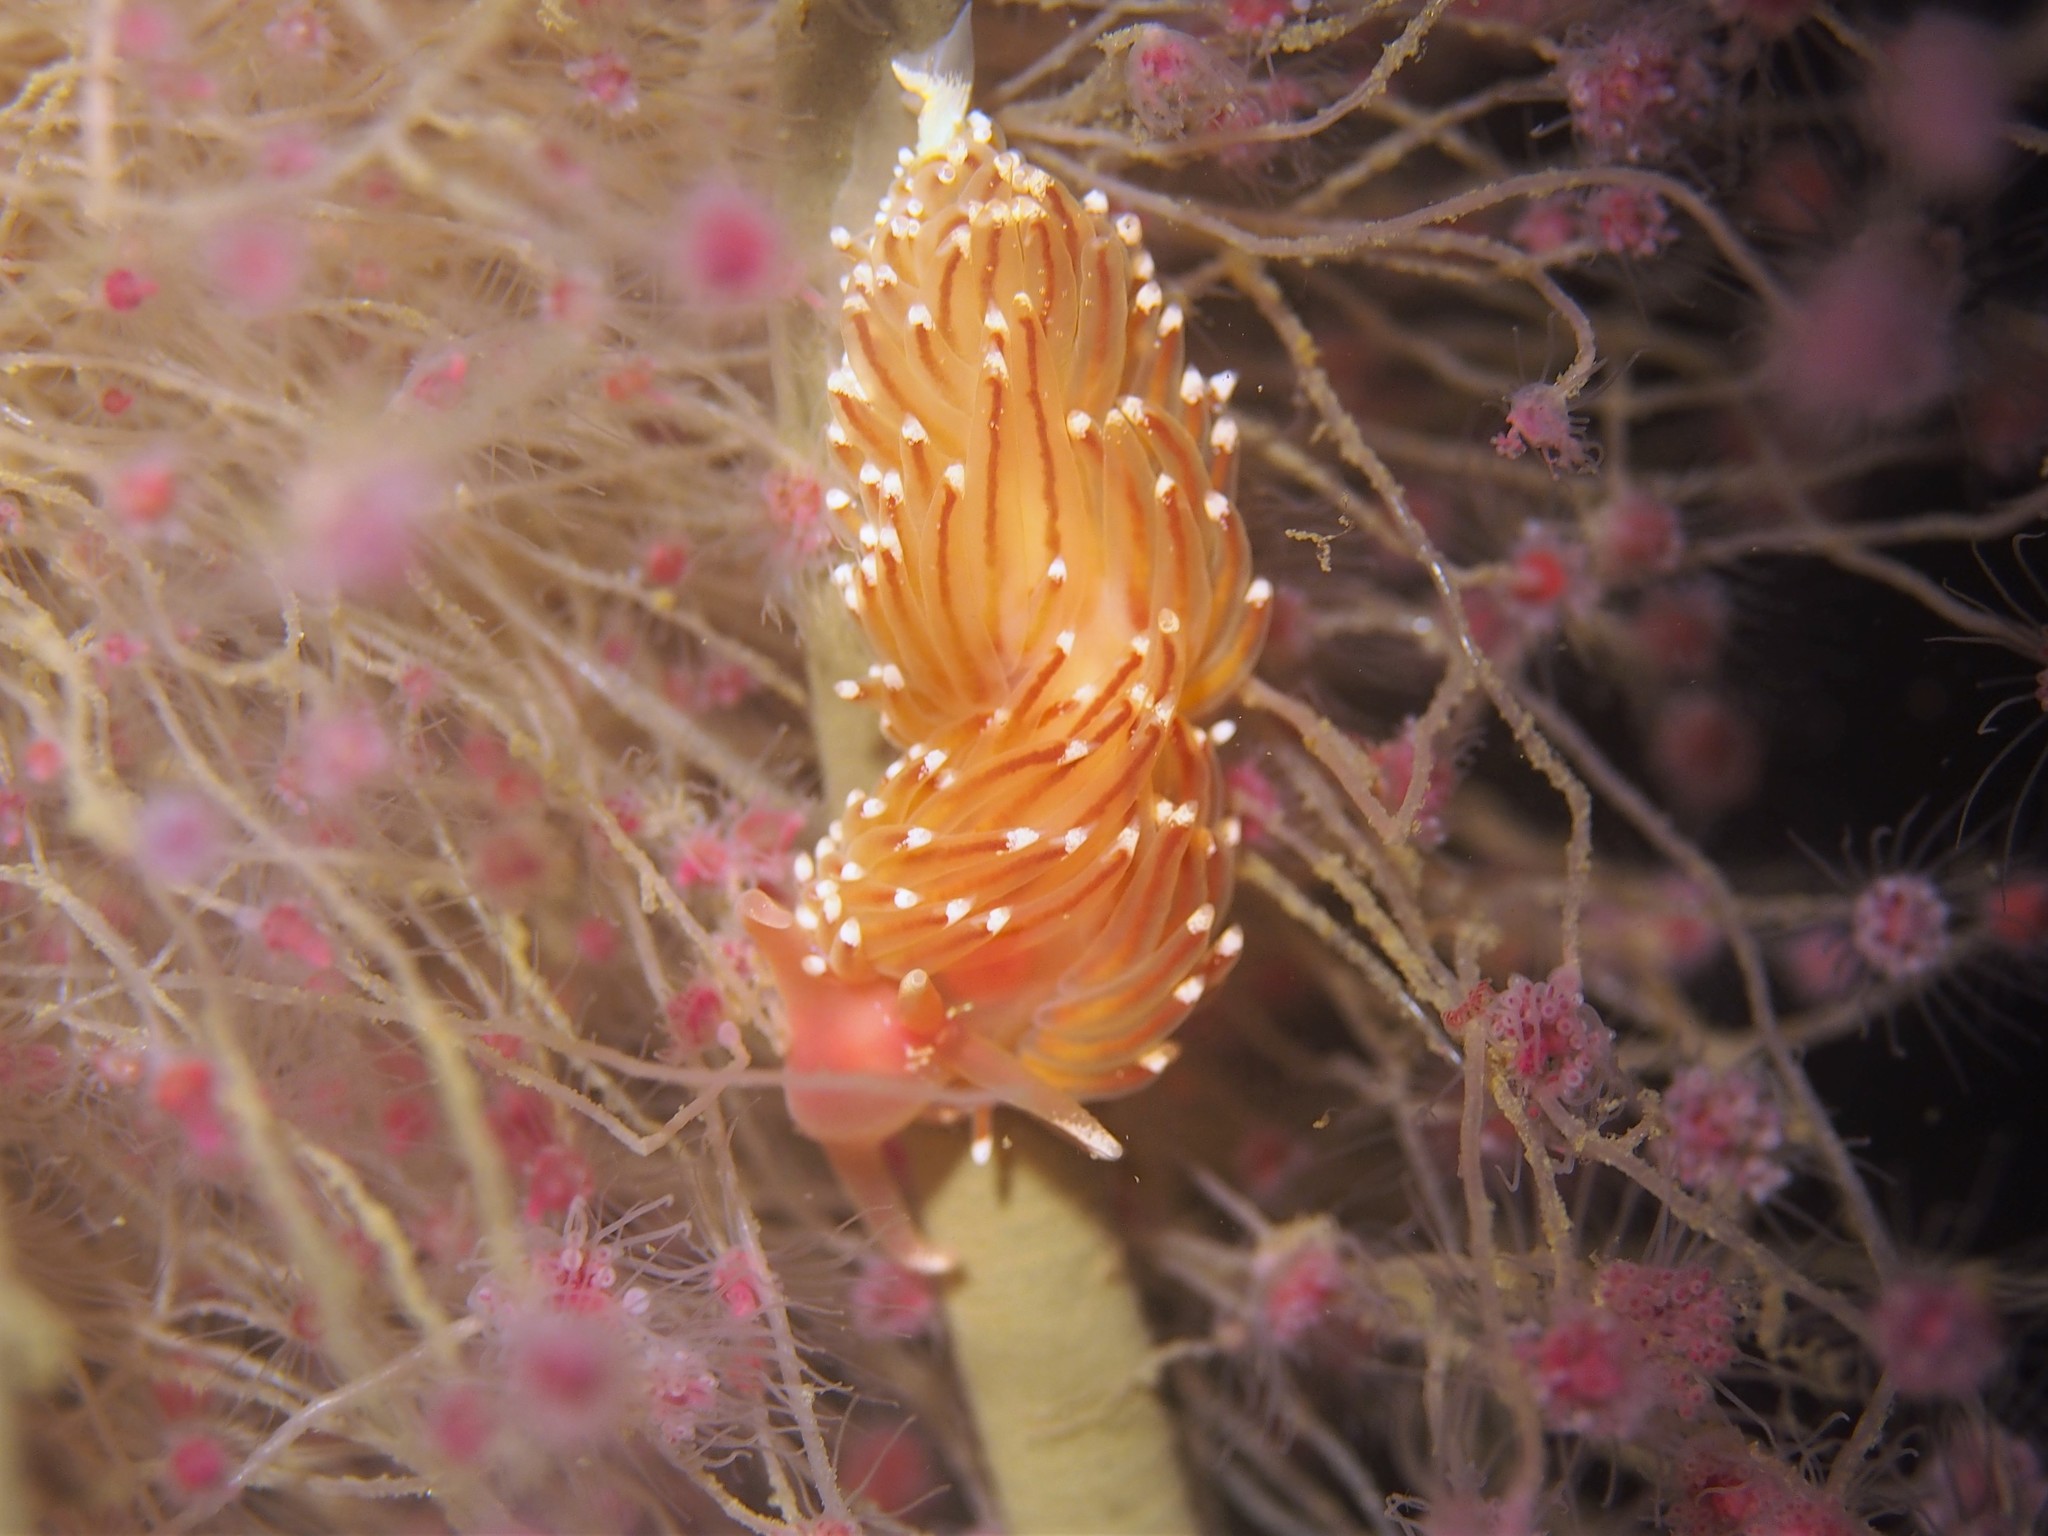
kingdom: Animalia
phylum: Mollusca
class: Gastropoda
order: Nudibranchia
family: Facelinidae
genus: Facelina
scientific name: Facelina bostoniensis
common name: Boston facelina
